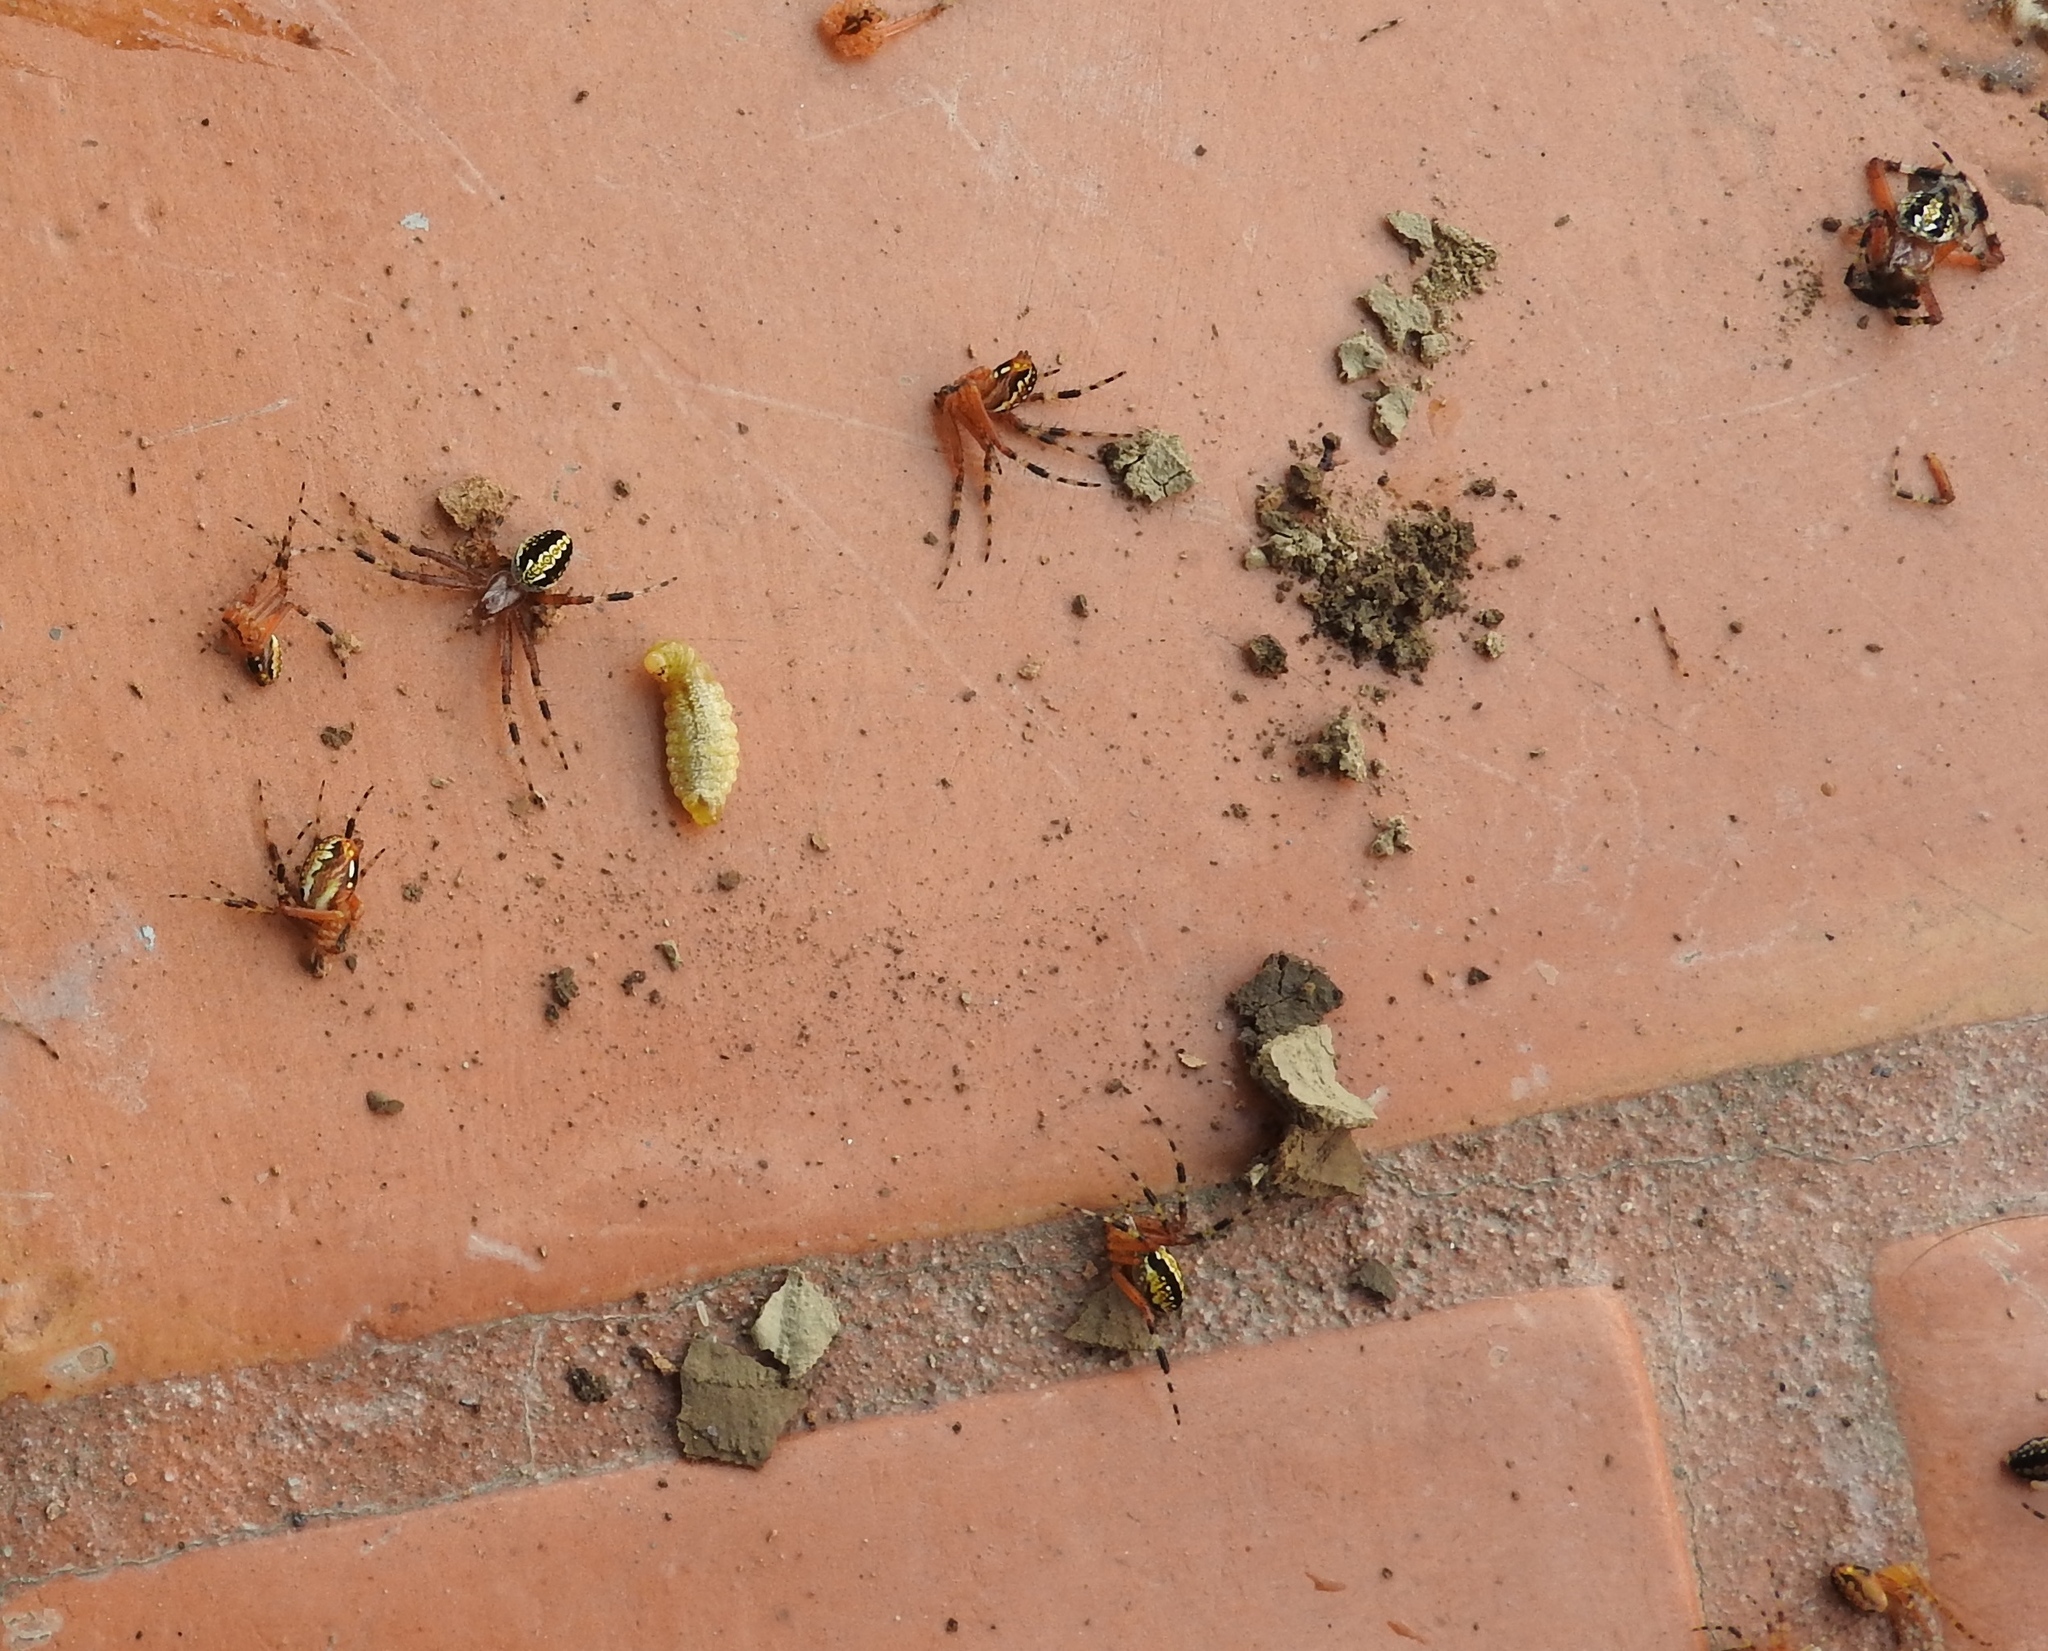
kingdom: Animalia
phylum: Arthropoda
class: Arachnida
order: Araneae
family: Araneidae
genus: Neoscona
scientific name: Neoscona oaxacensis
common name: Orb weavers
